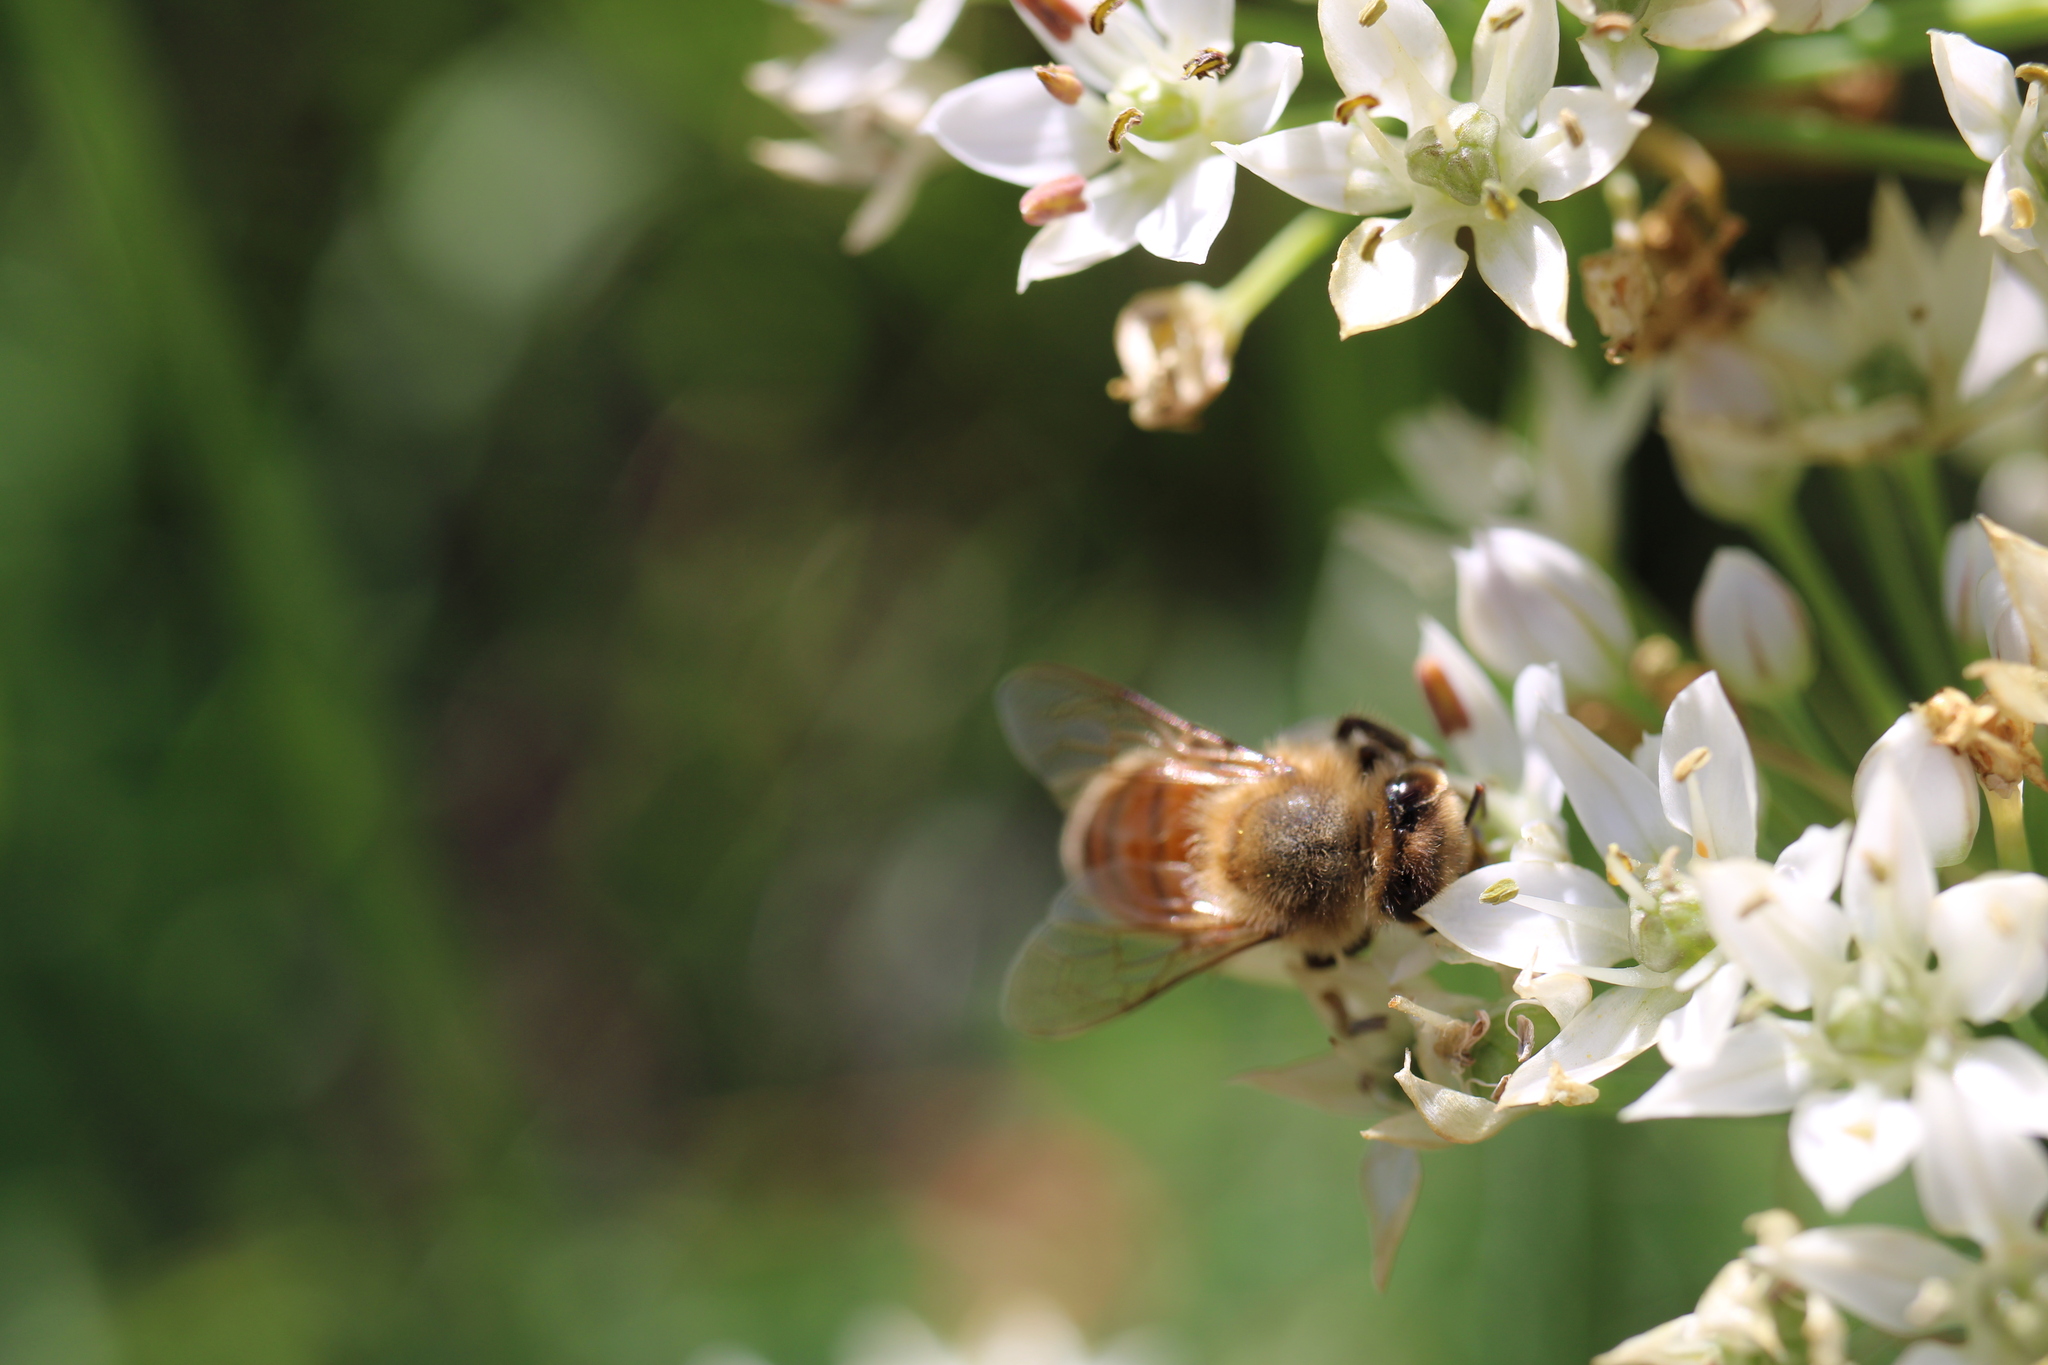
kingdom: Animalia
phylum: Arthropoda
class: Insecta
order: Hymenoptera
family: Apidae
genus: Apis
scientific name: Apis mellifera
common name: Honey bee
